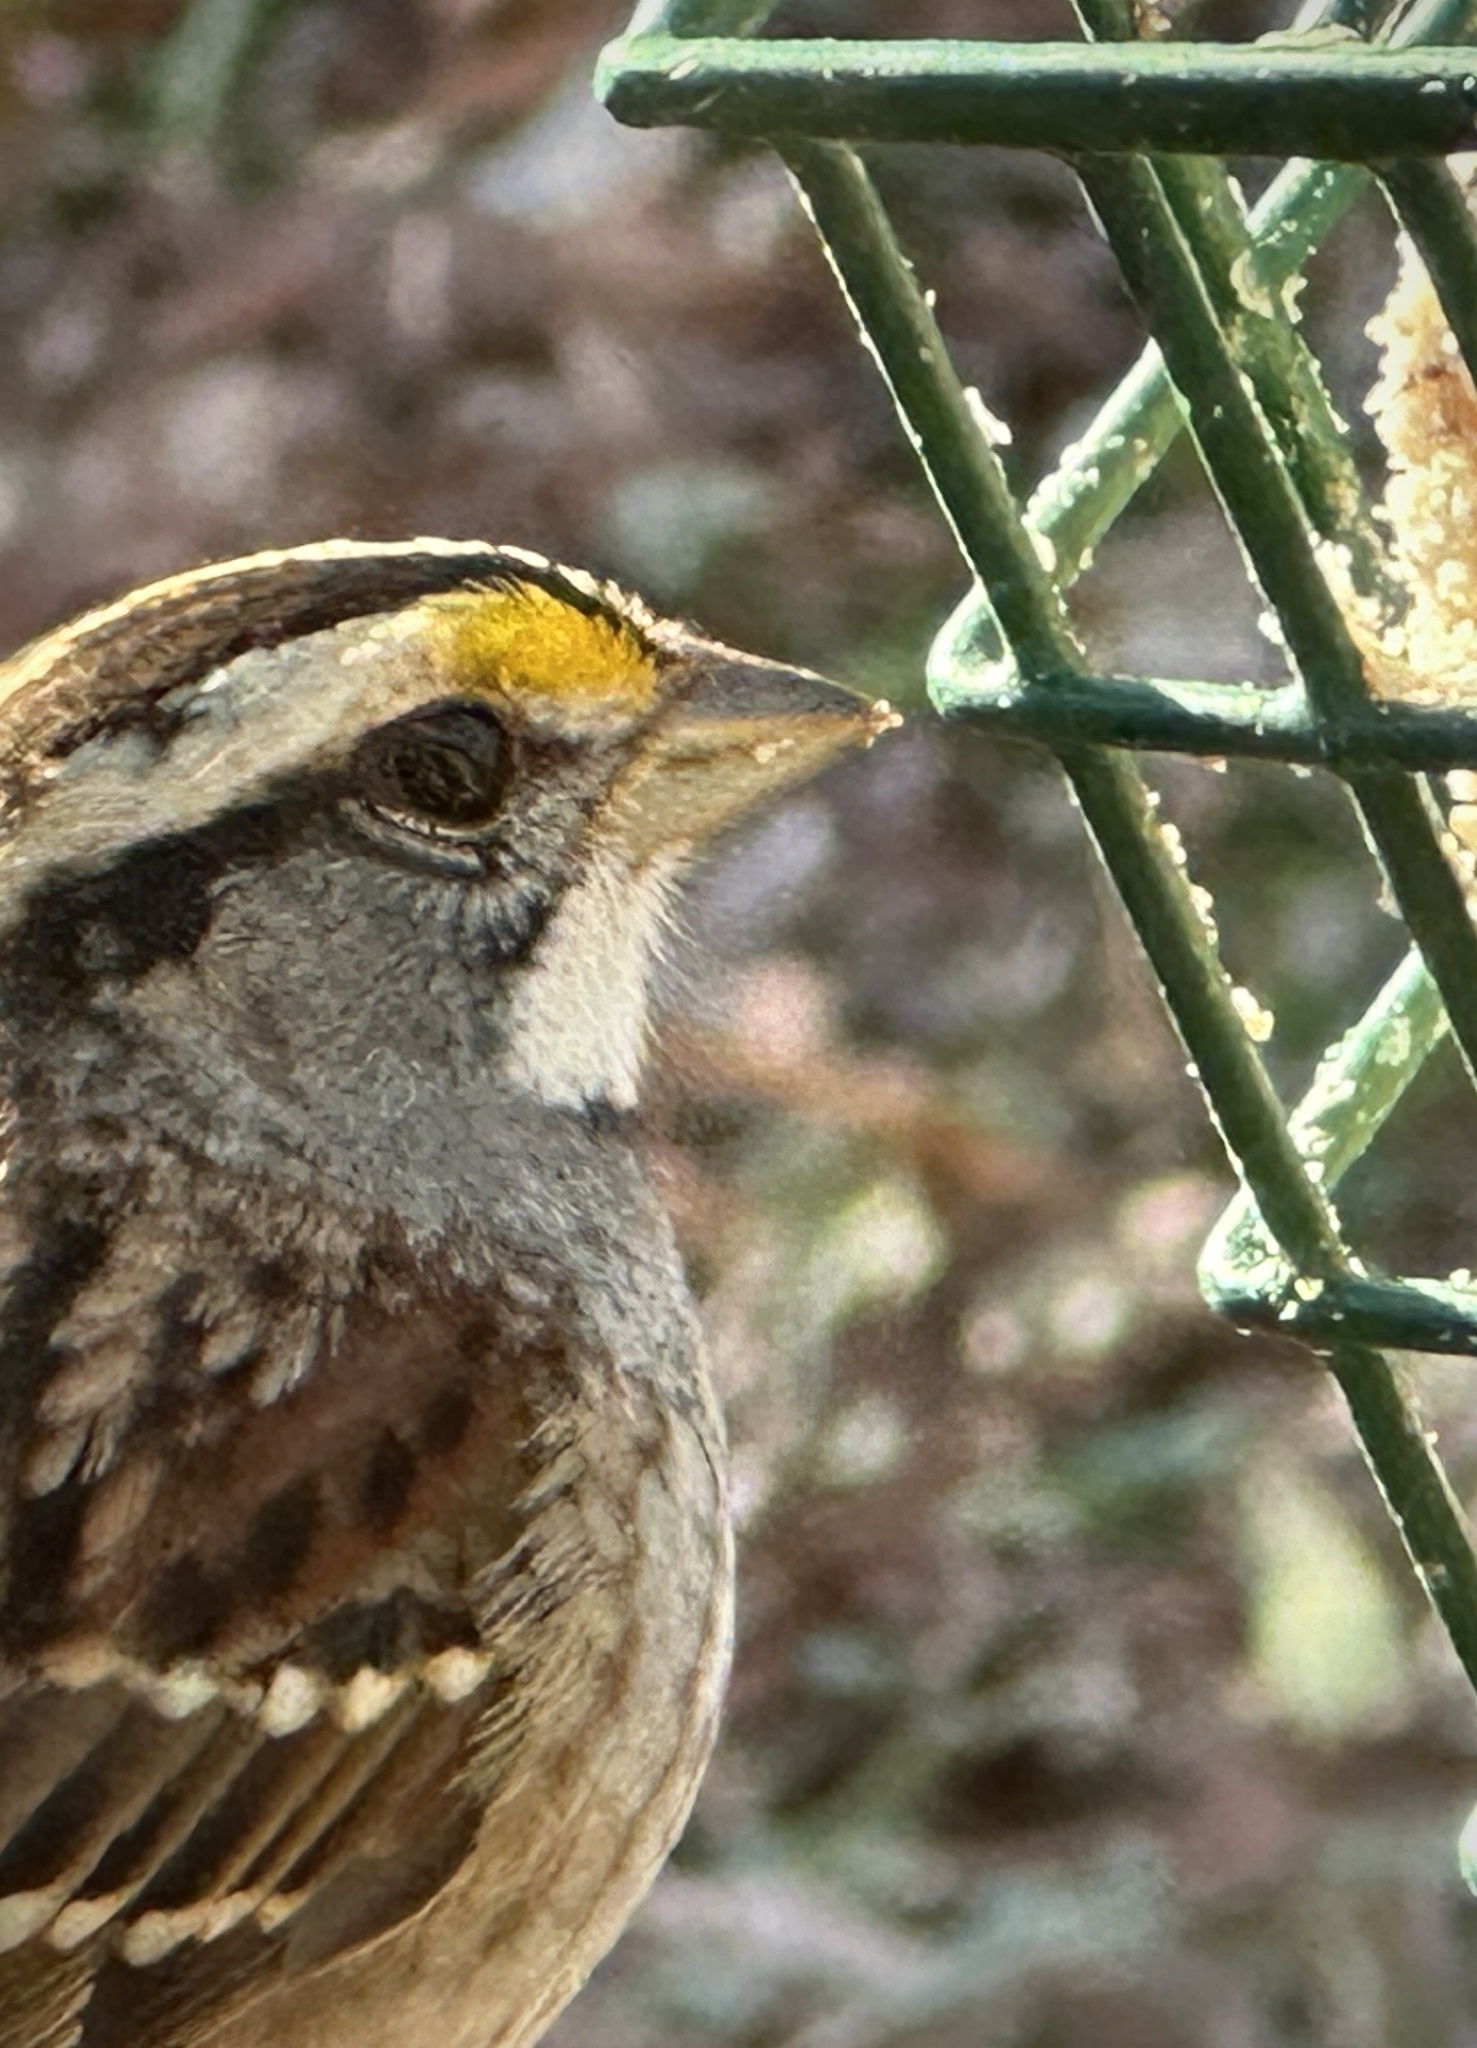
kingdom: Animalia
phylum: Chordata
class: Aves
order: Passeriformes
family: Passerellidae
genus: Zonotrichia
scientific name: Zonotrichia albicollis
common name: White-throated sparrow
